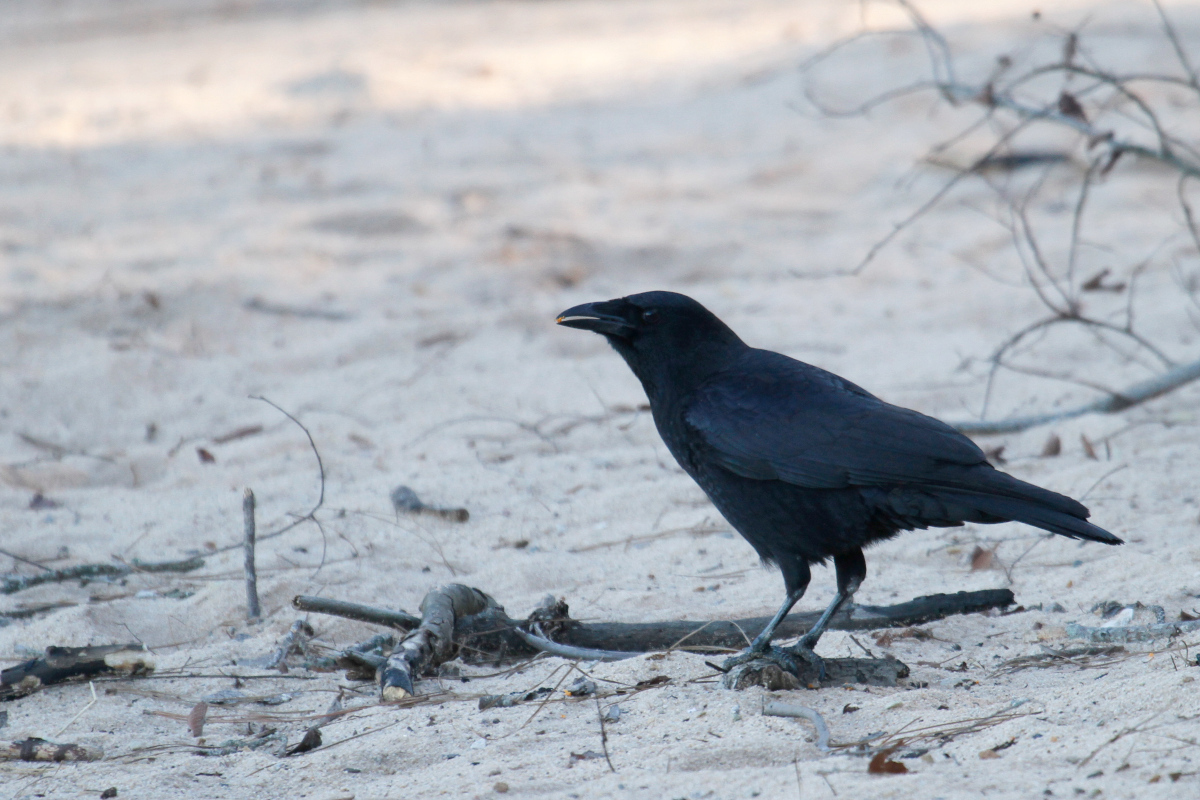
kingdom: Animalia
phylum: Chordata
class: Aves
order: Passeriformes
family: Corvidae
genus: Corvus
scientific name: Corvus brachyrhynchos
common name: American crow
